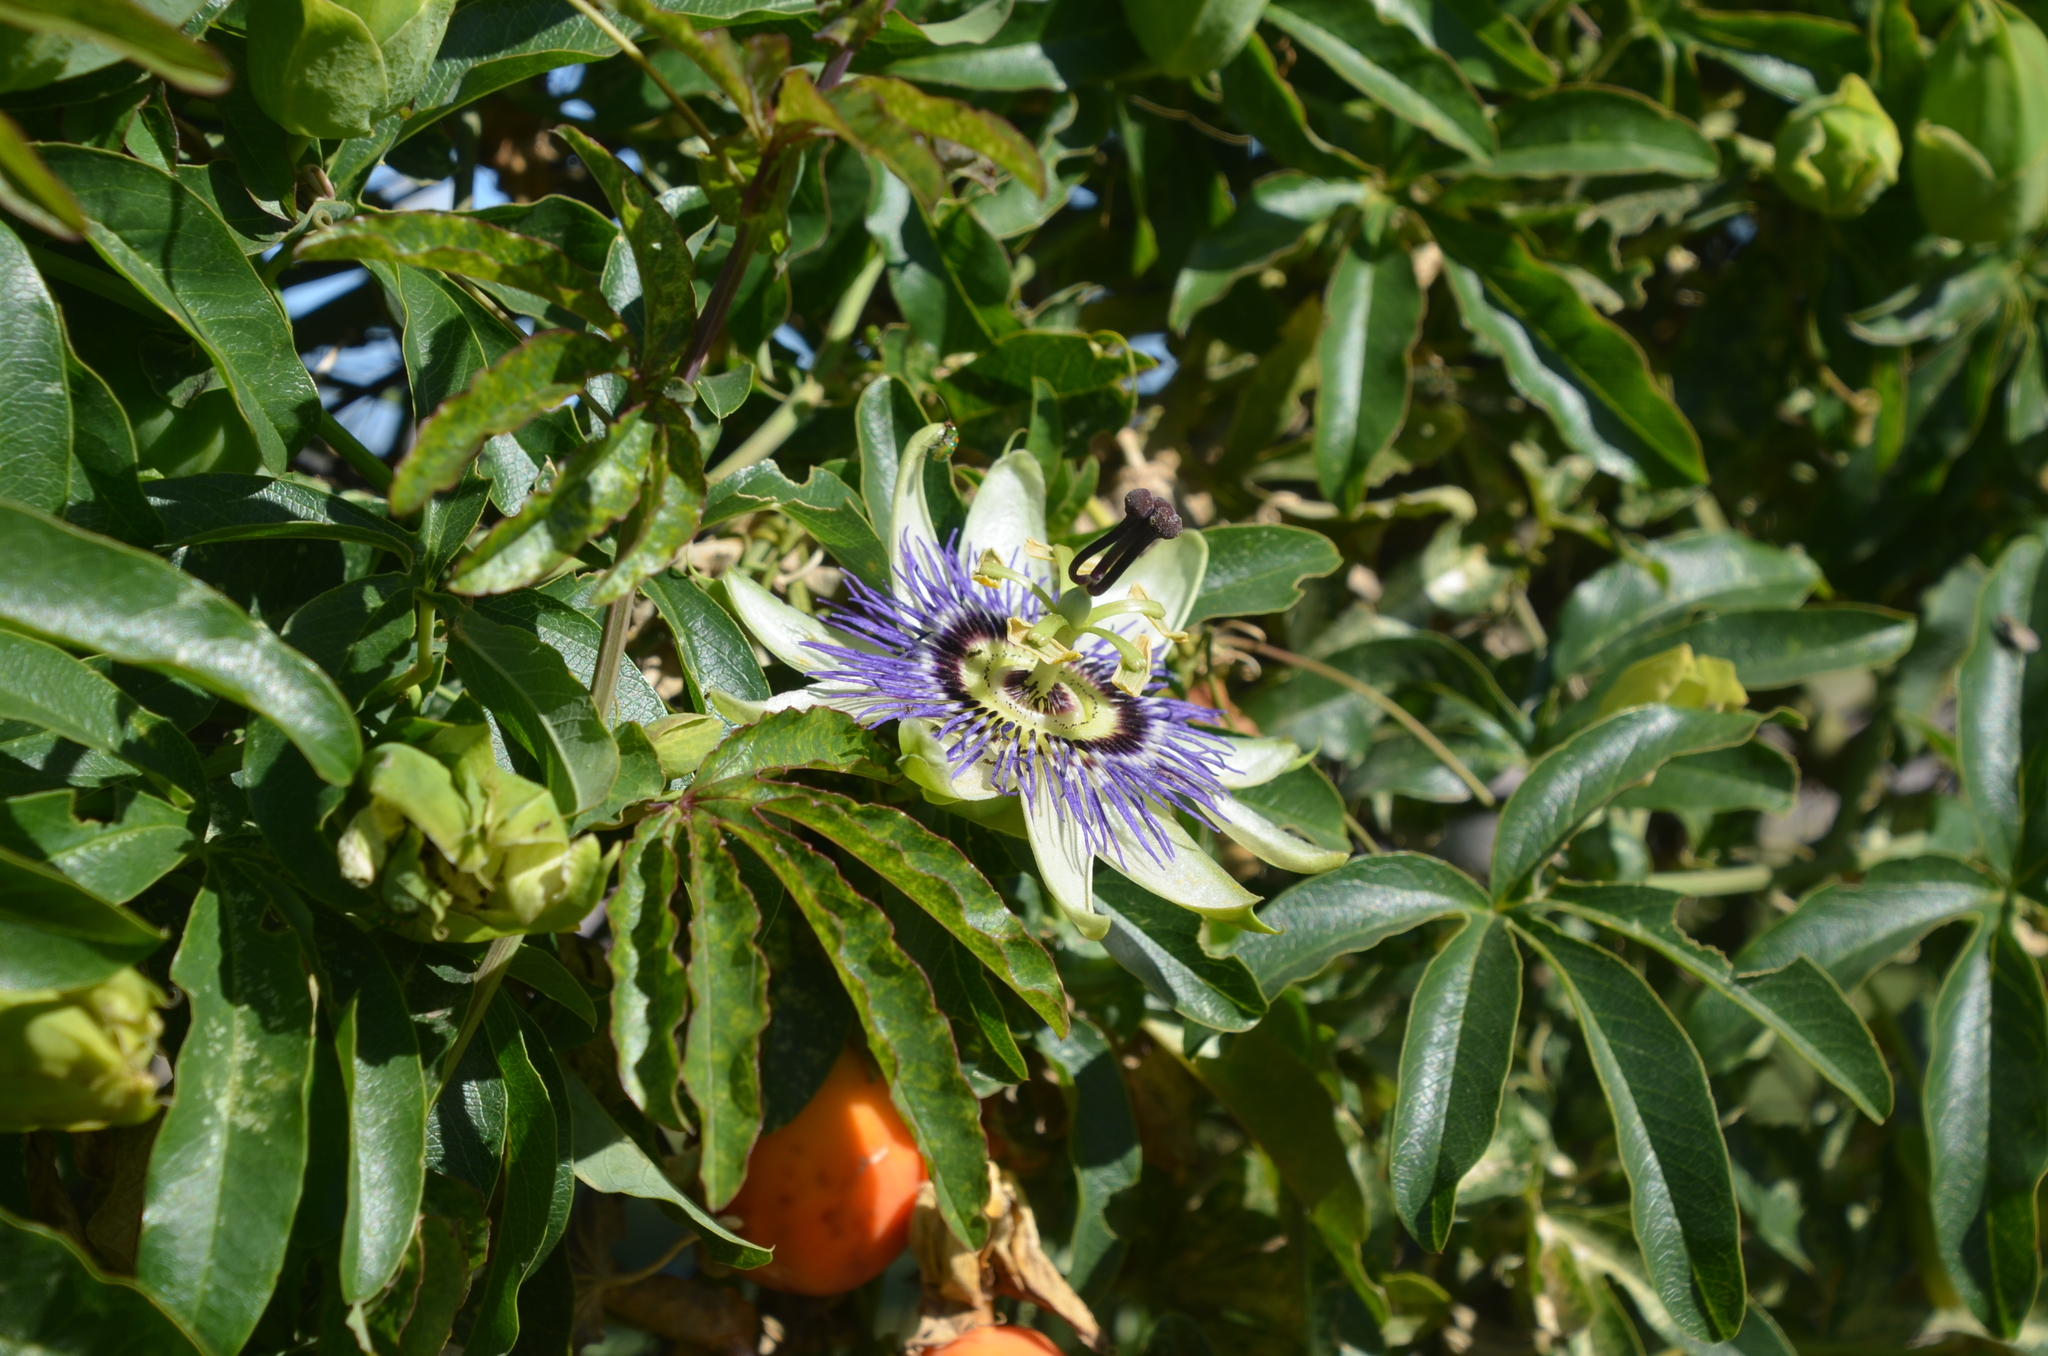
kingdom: Plantae
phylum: Tracheophyta
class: Magnoliopsida
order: Malpighiales
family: Passifloraceae
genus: Passiflora
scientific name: Passiflora caerulea
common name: Blue passionflower
